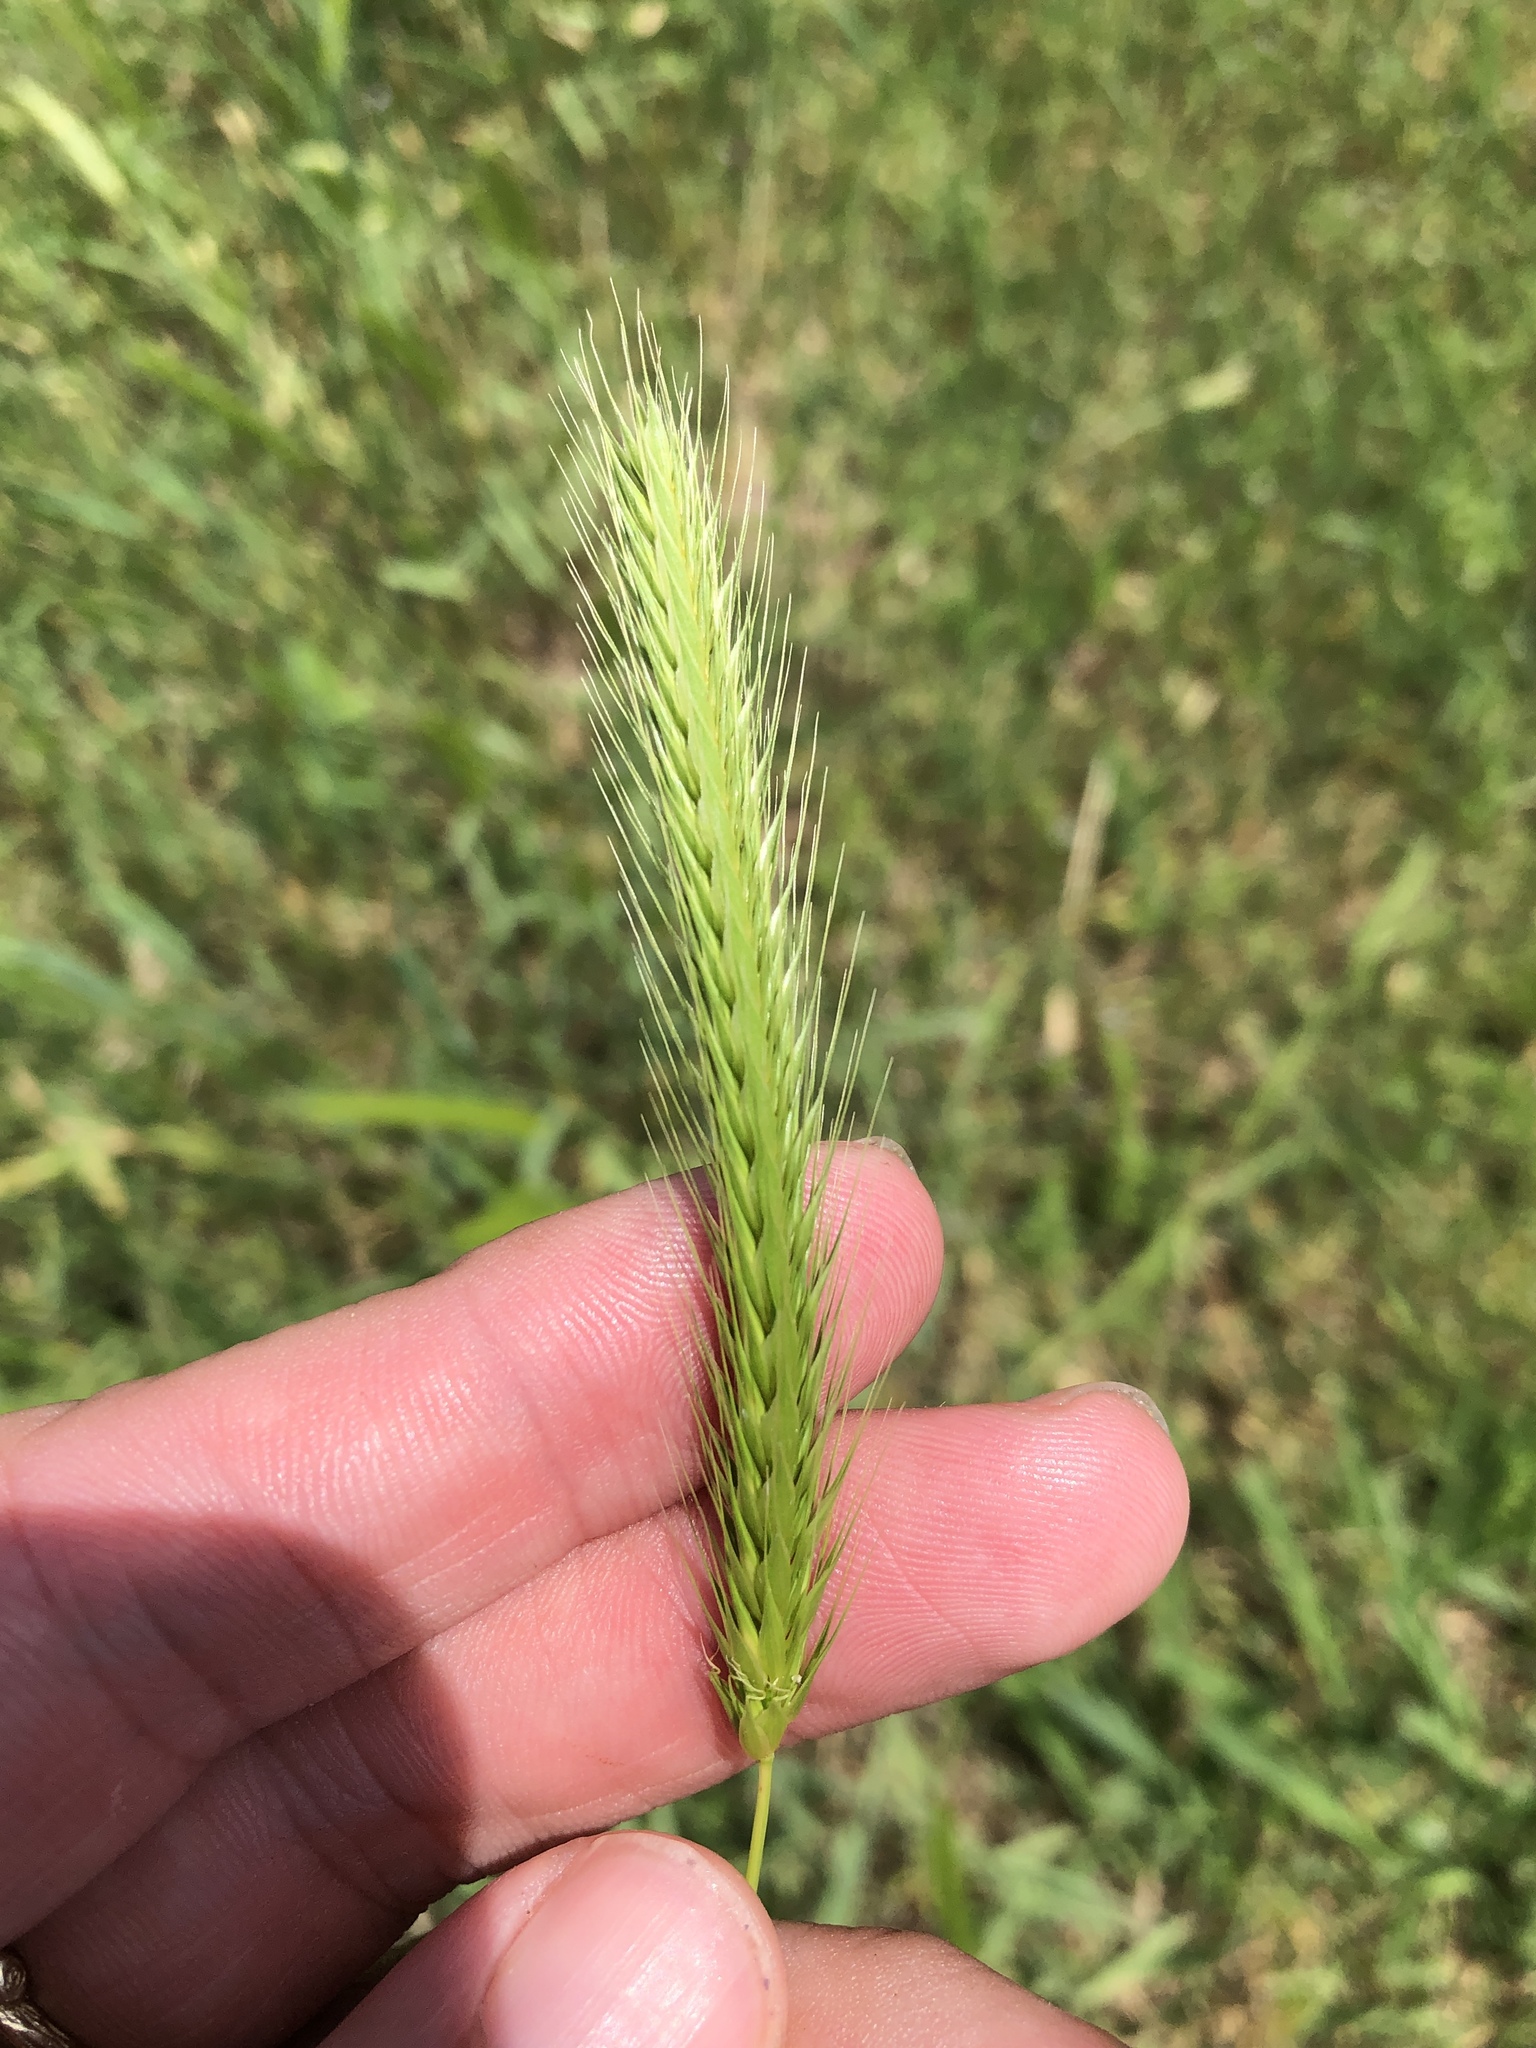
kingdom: Plantae
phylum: Tracheophyta
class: Liliopsida
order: Poales
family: Poaceae
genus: Hordeum
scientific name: Hordeum pusillum
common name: Little barley
